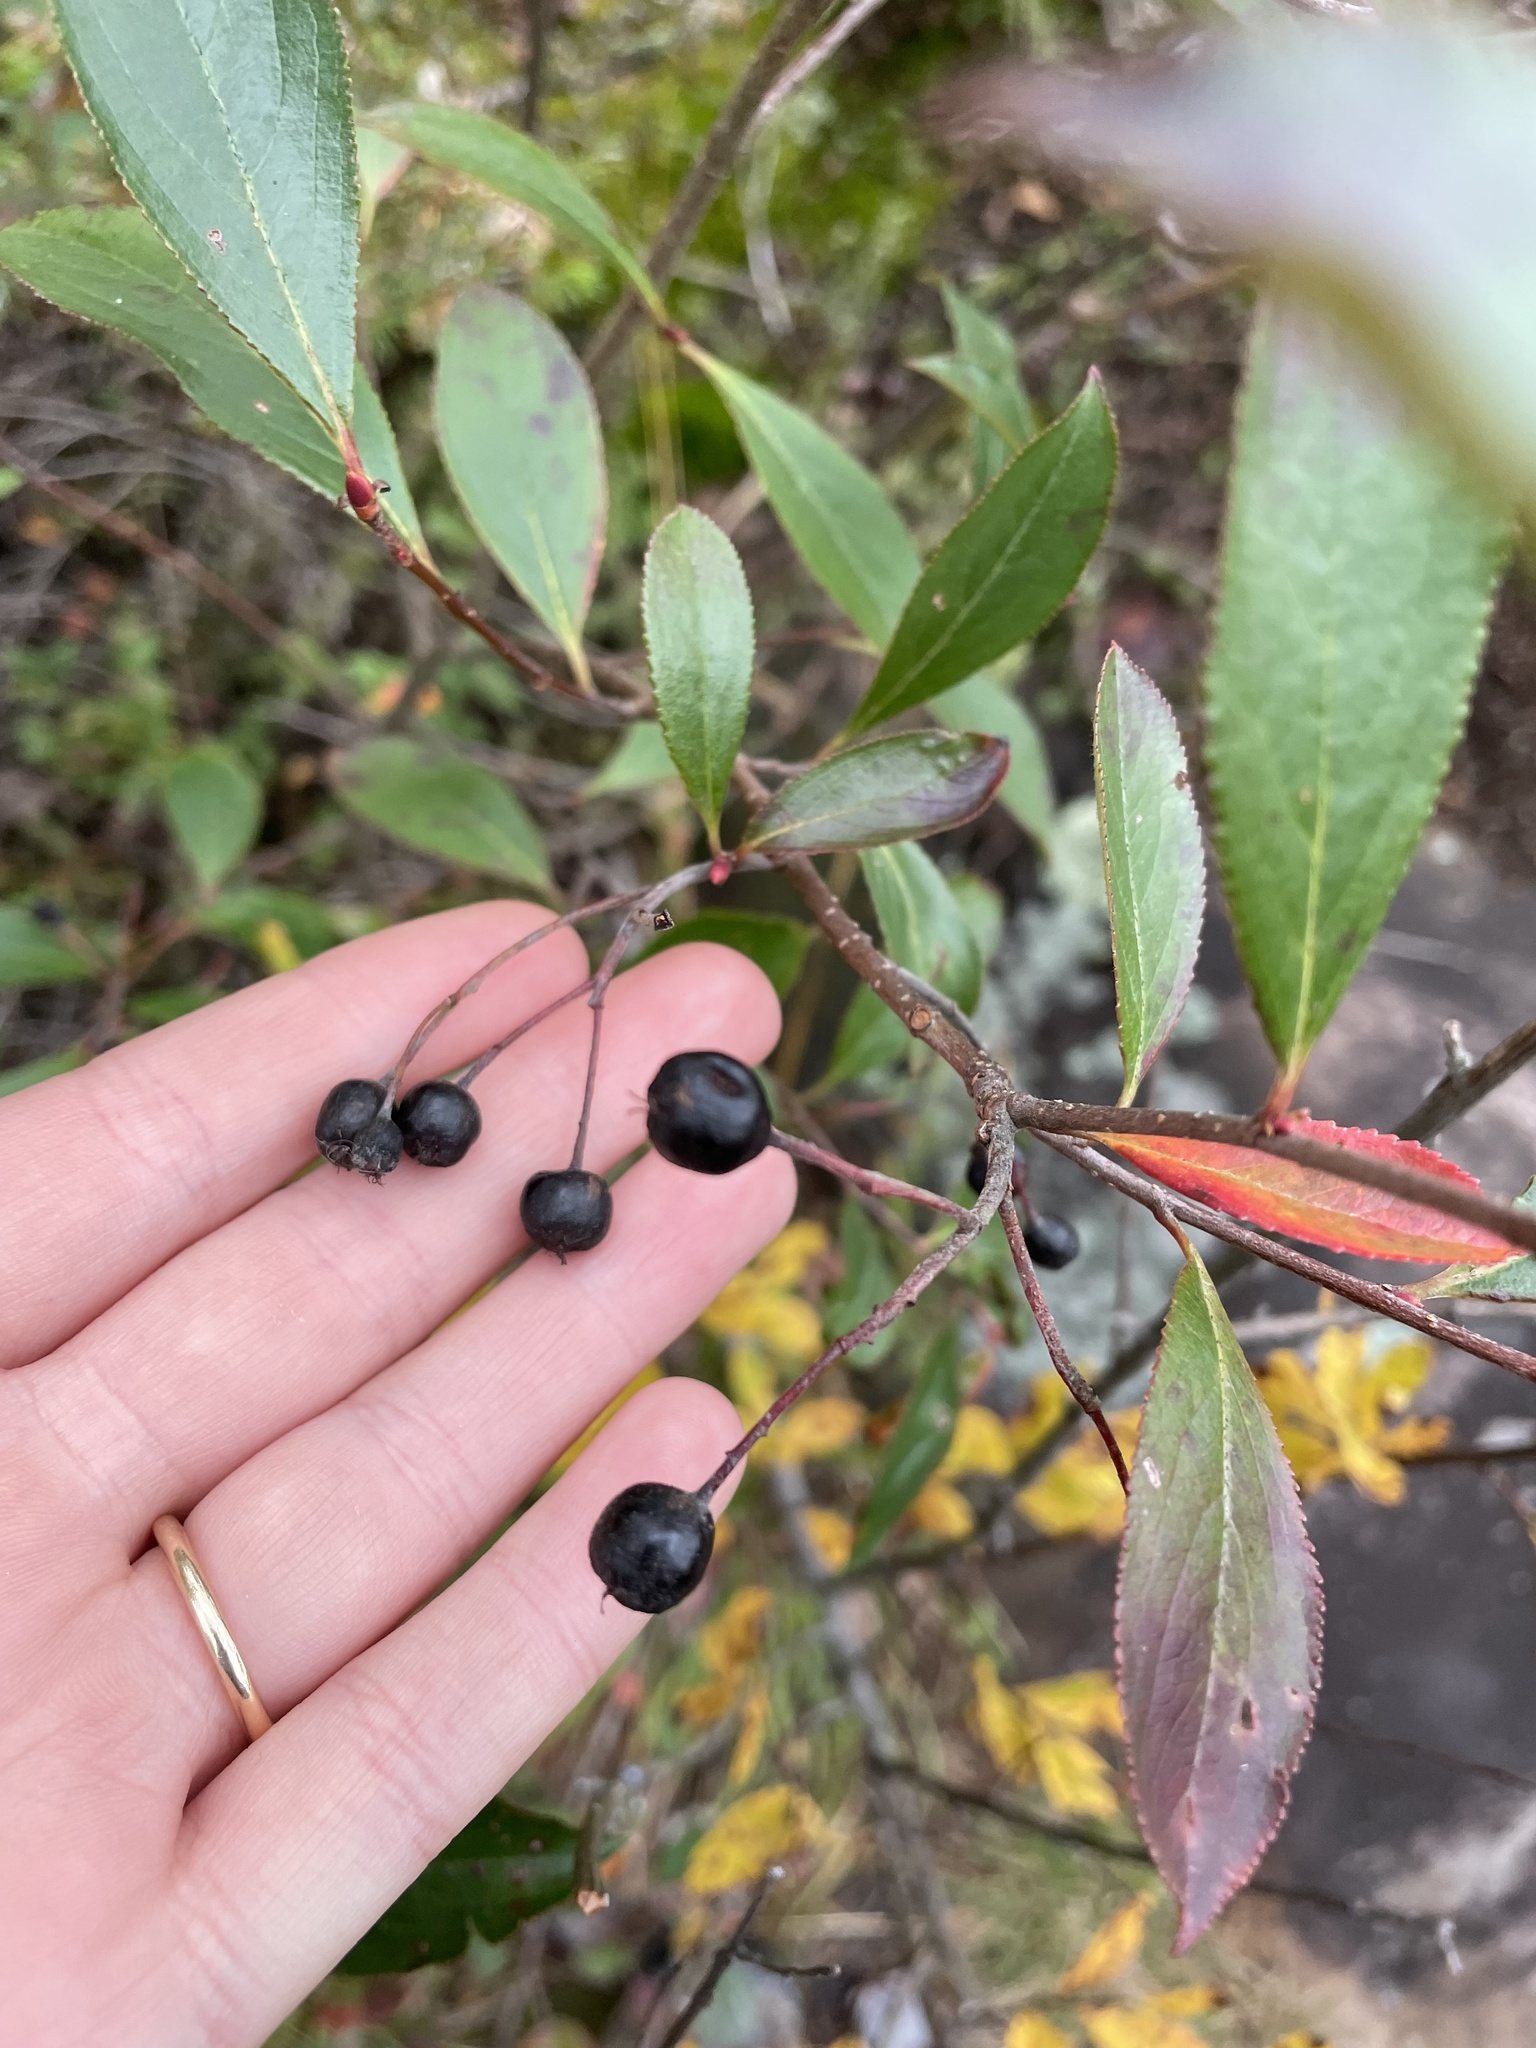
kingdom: Plantae
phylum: Tracheophyta
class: Magnoliopsida
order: Rosales
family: Rosaceae
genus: Aronia
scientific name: Aronia melanocarpa
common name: Black chokeberry
